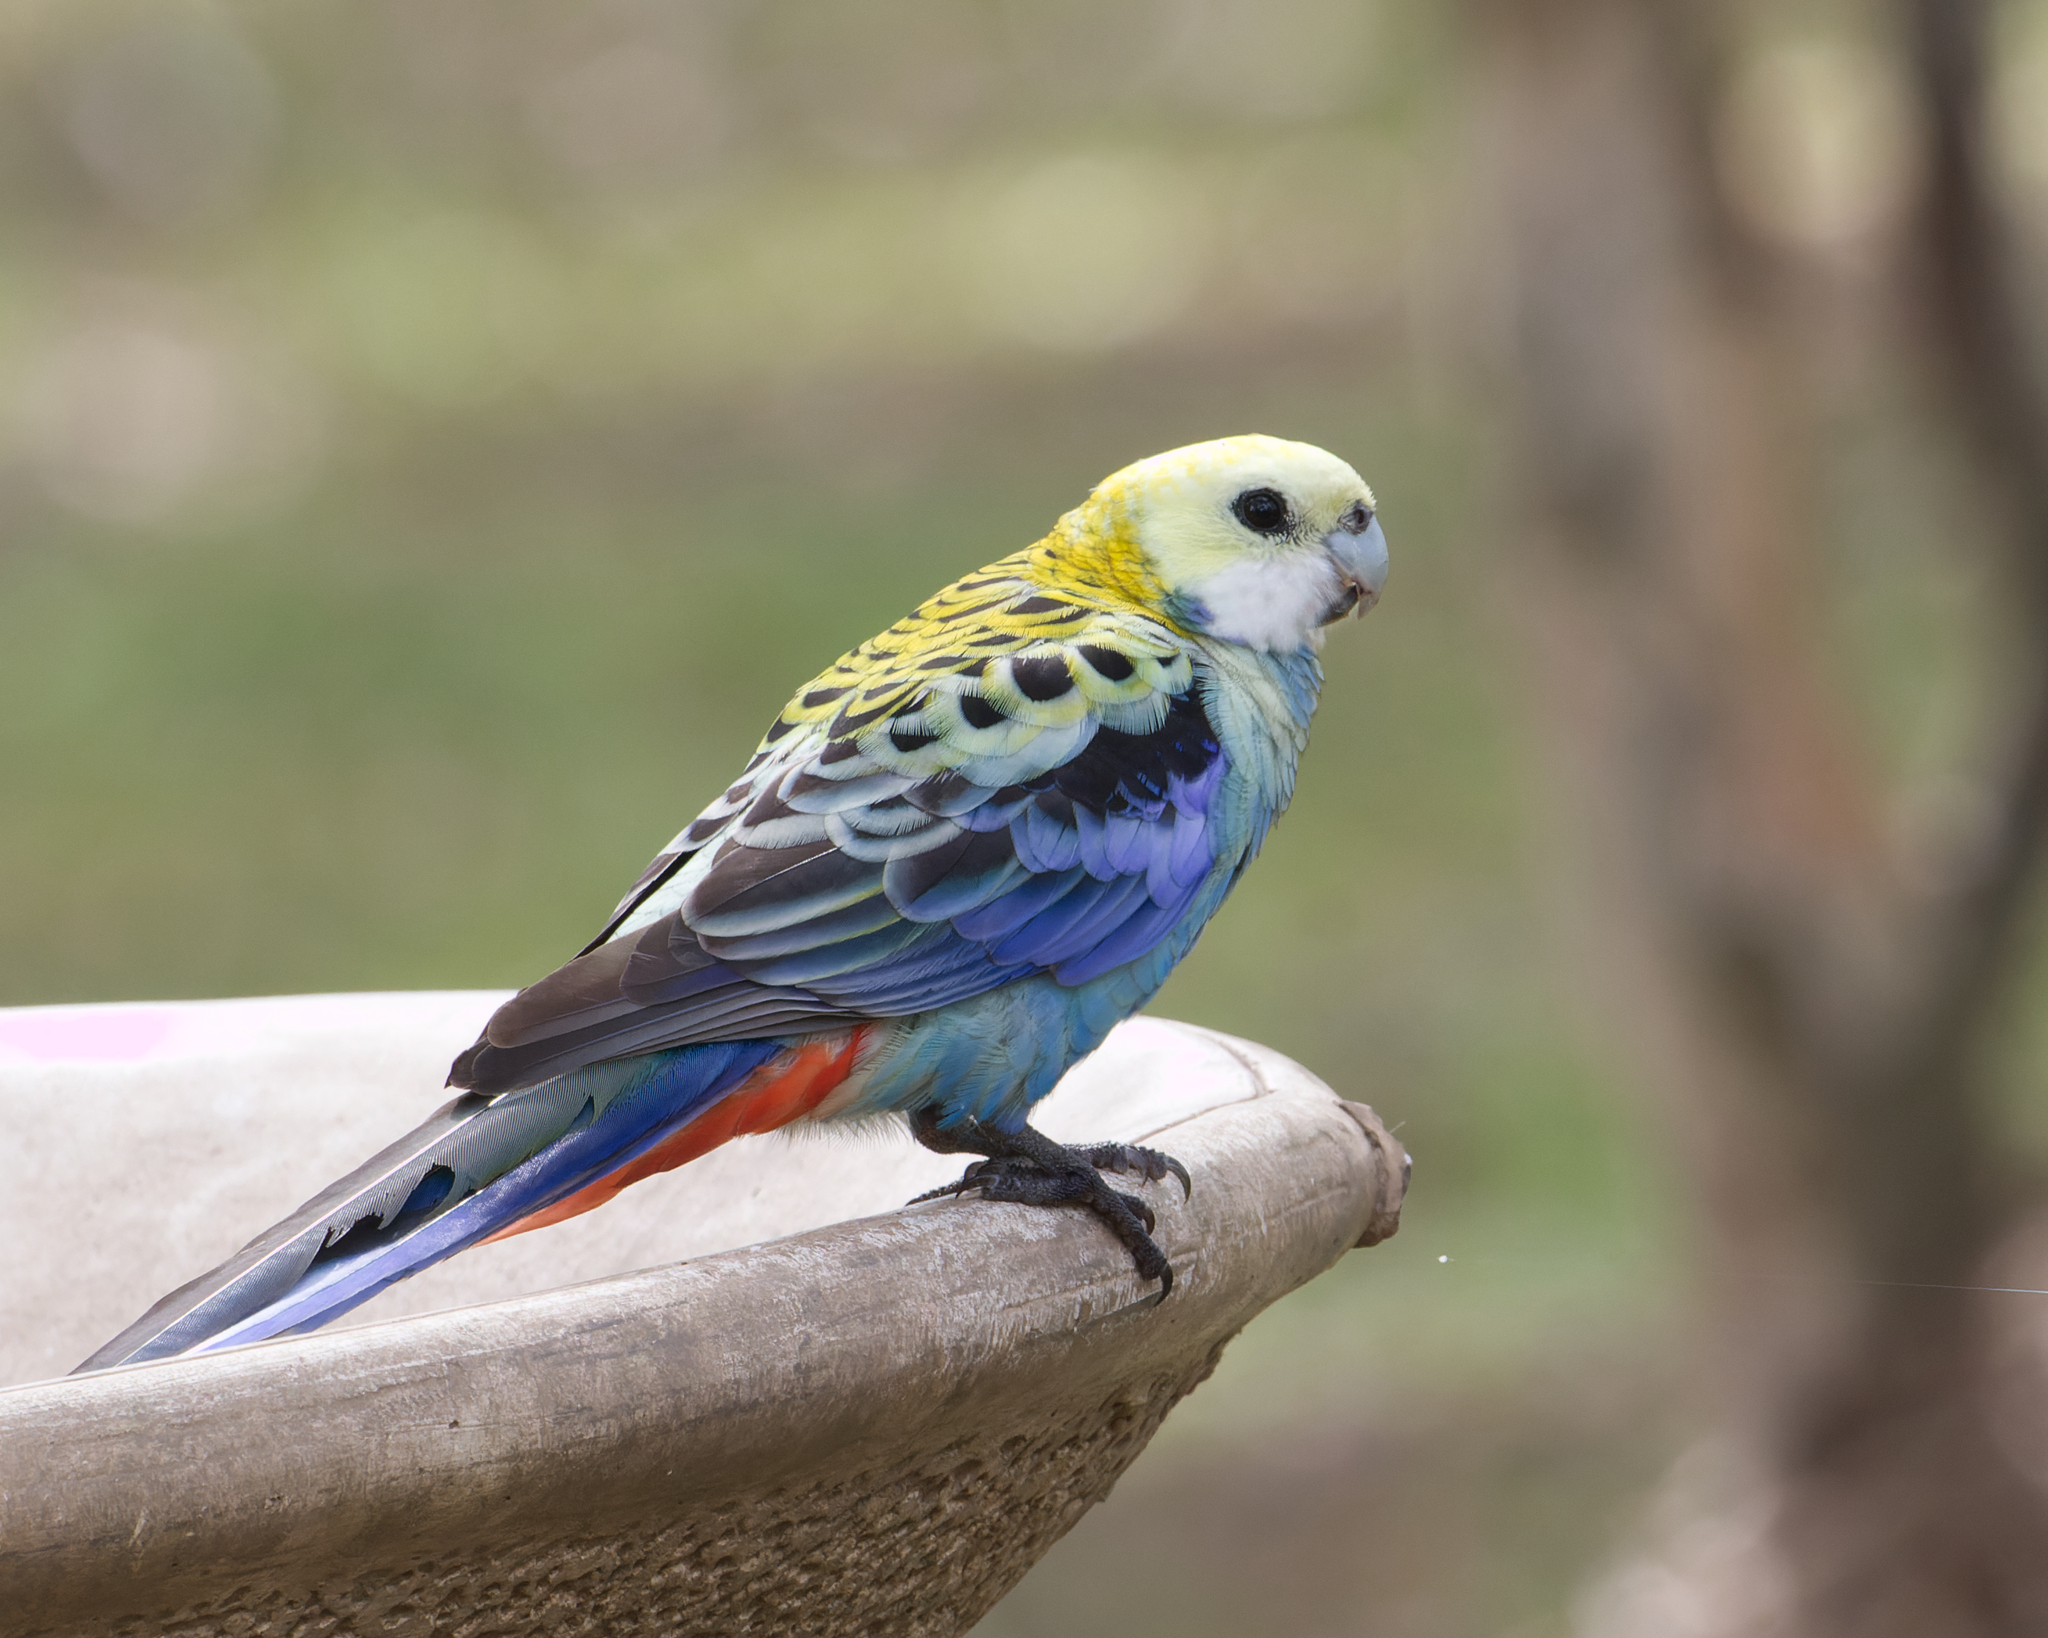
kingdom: Animalia
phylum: Chordata
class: Aves
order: Psittaciformes
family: Psittacidae
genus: Platycercus
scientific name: Platycercus adscitus
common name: Pale-headed rosella
